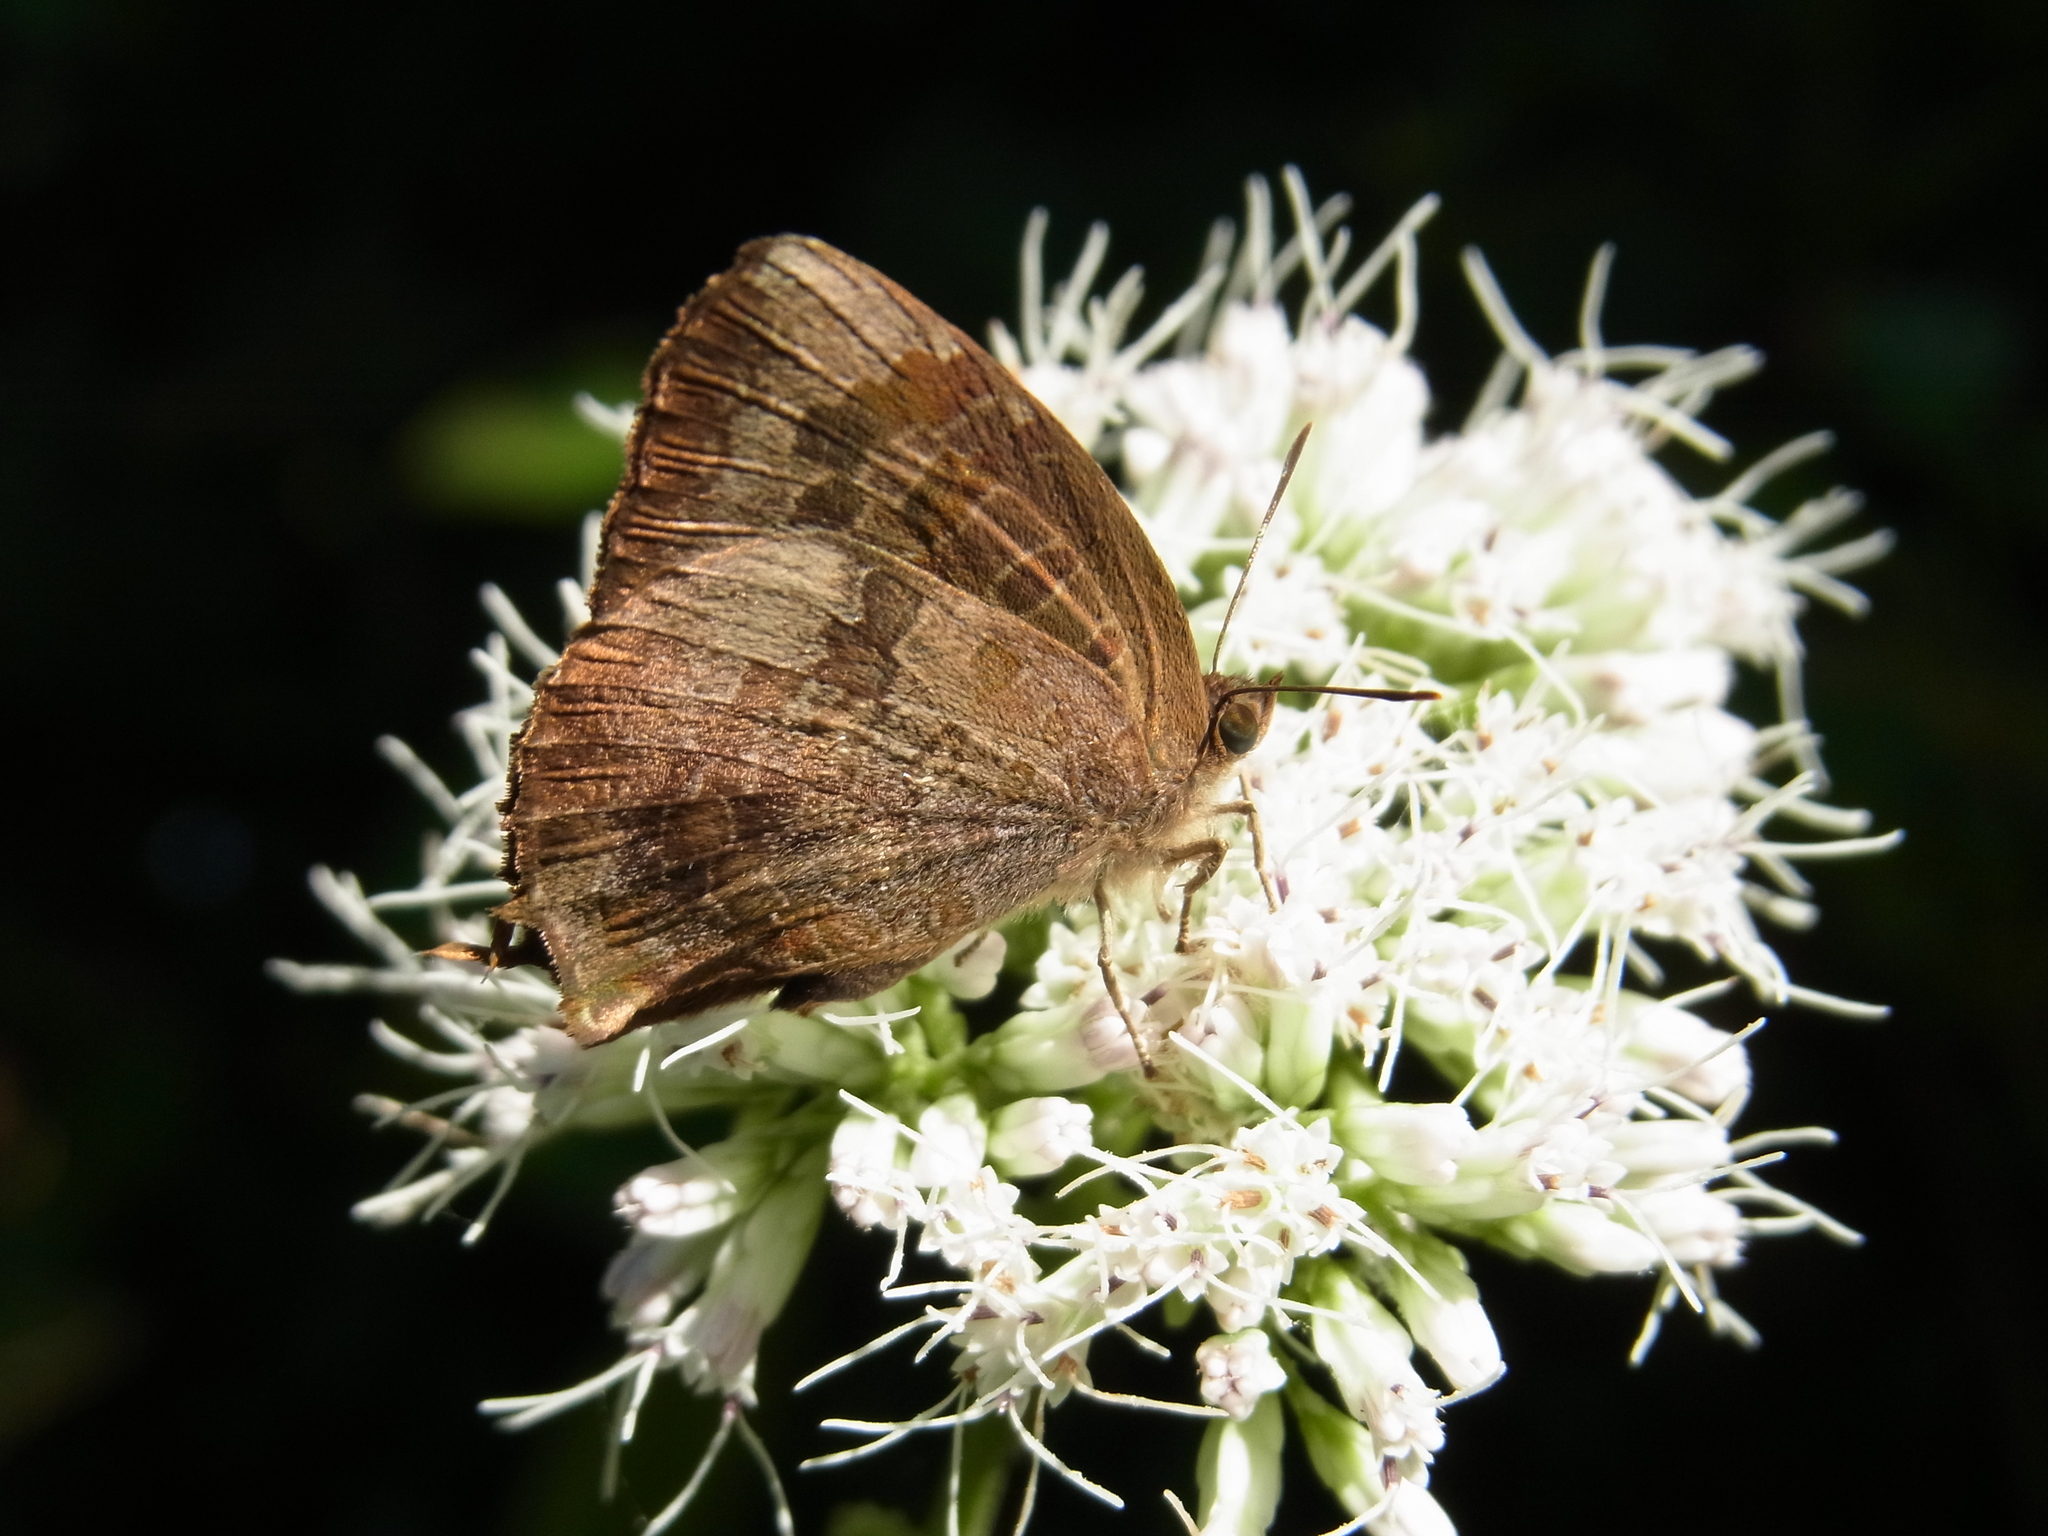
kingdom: Animalia
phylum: Arthropoda
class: Insecta
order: Lepidoptera
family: Lycaenidae
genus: Arhopala
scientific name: Arhopala bazalus
